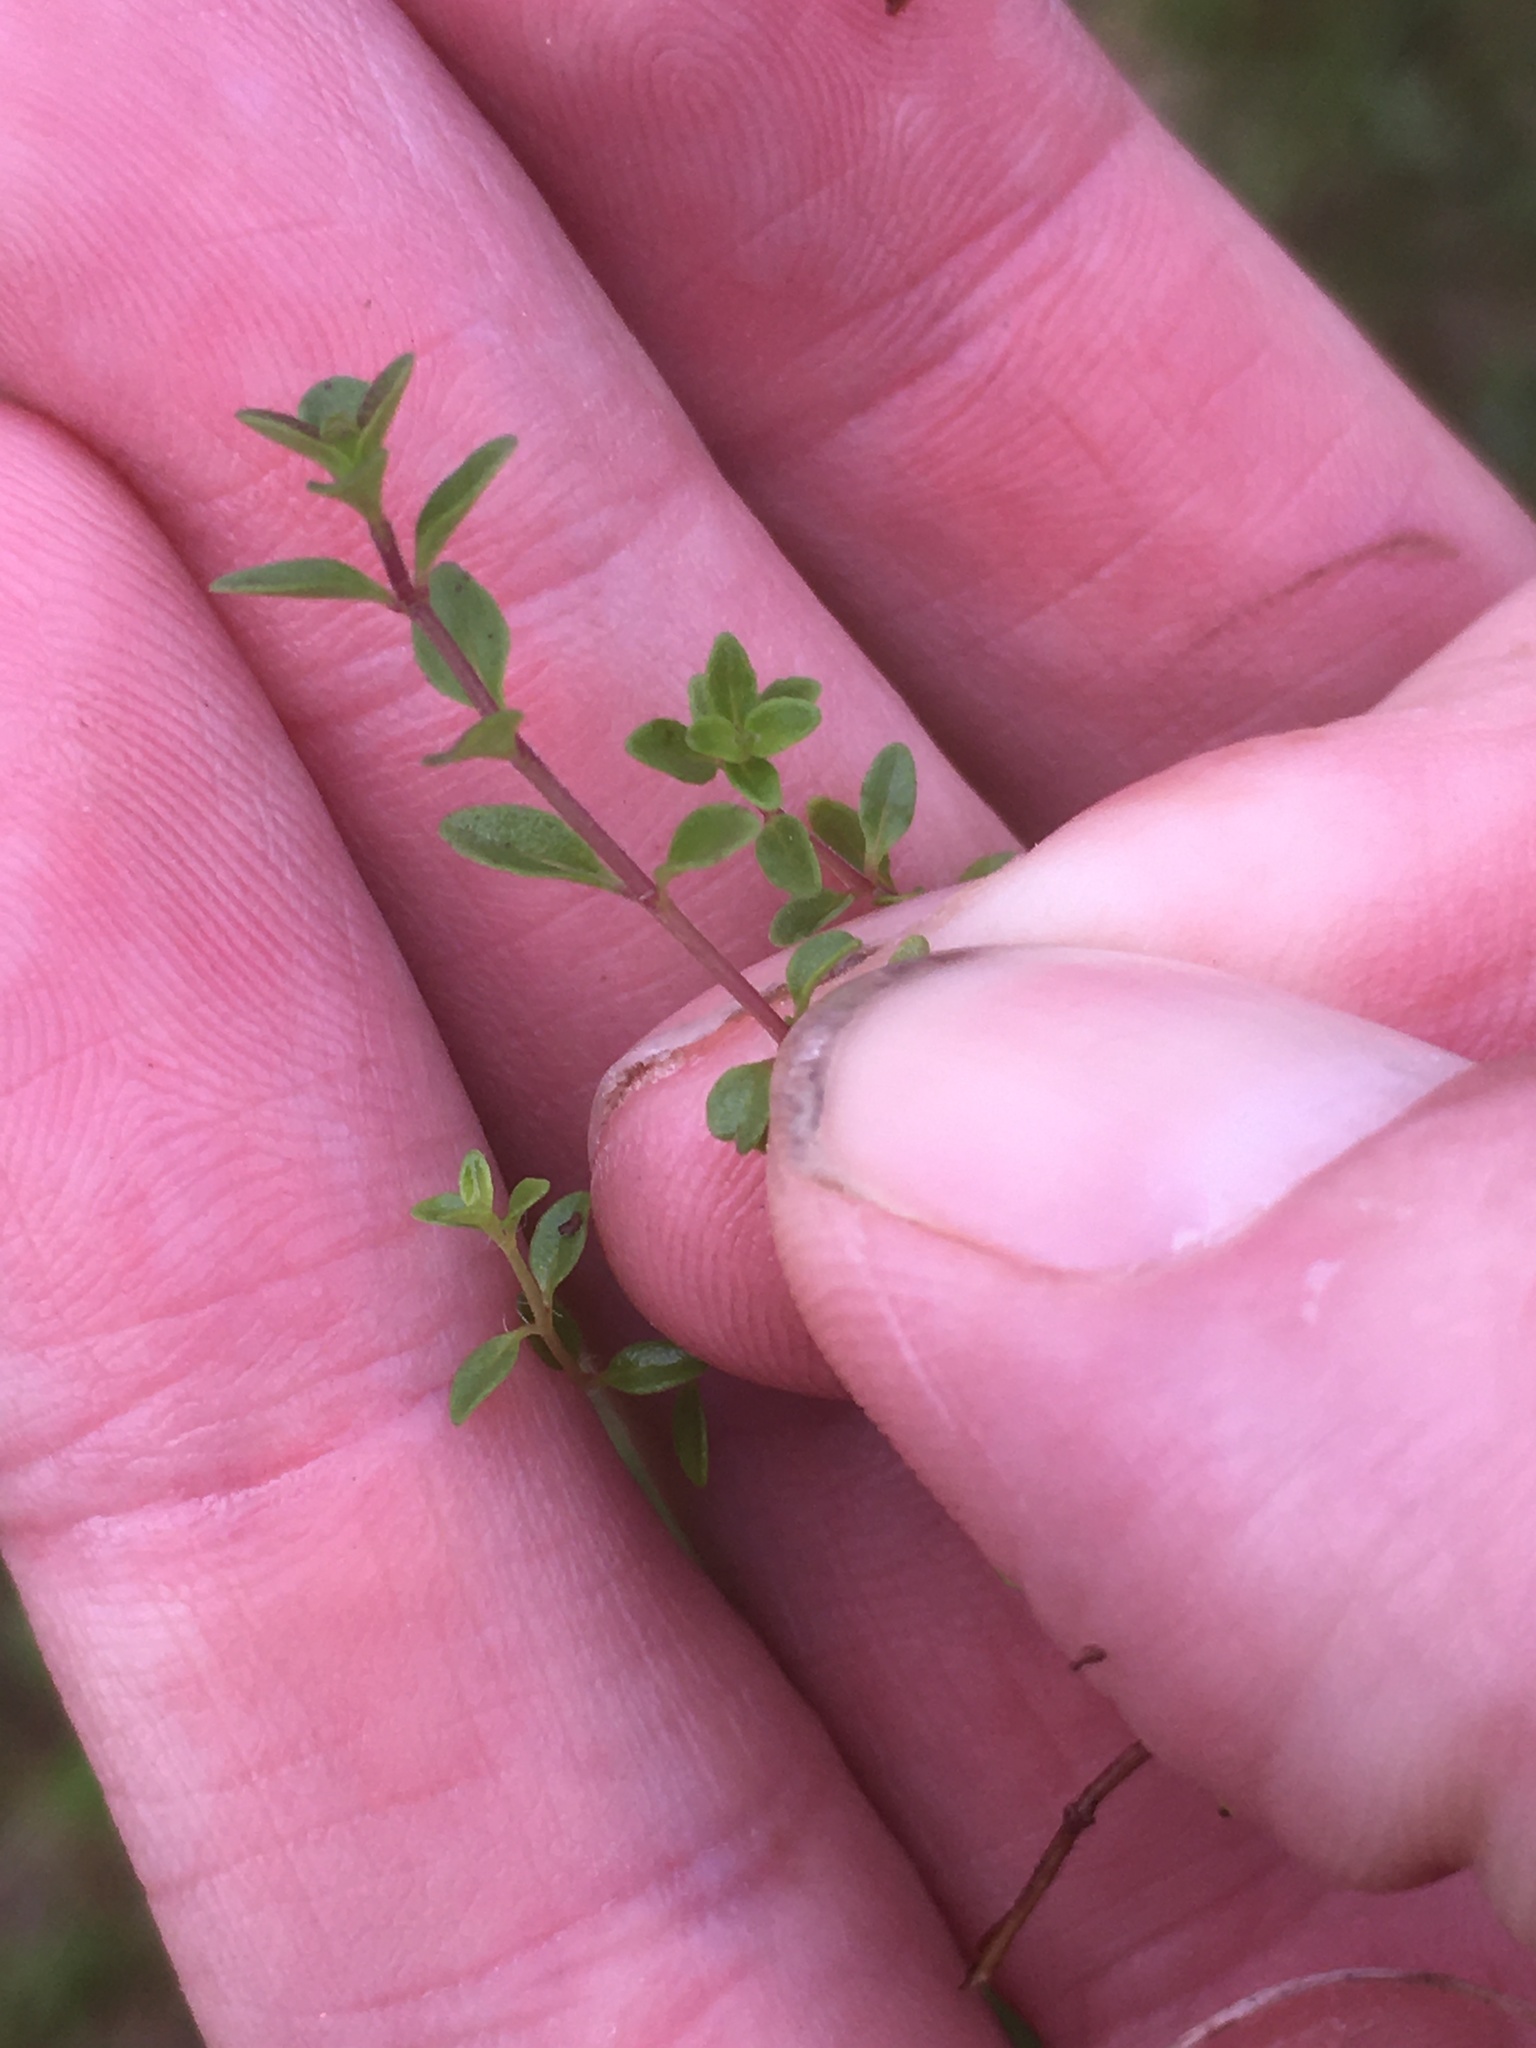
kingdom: Plantae
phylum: Tracheophyta
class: Magnoliopsida
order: Lamiales
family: Lamiaceae
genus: Thymus
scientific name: Thymus
